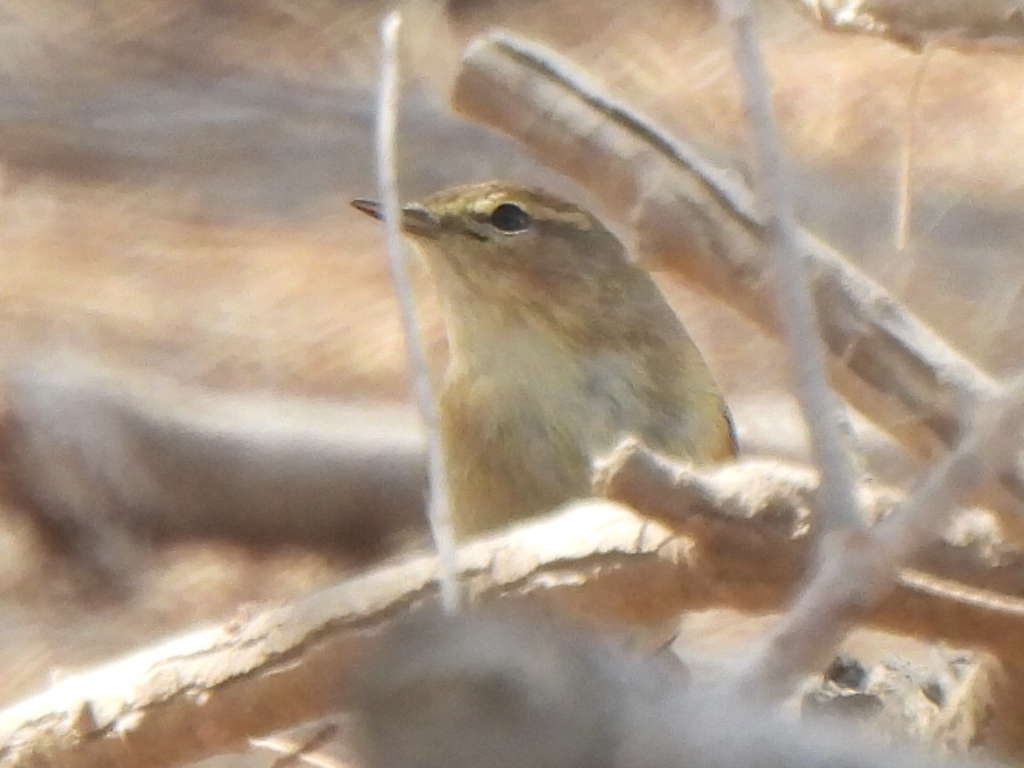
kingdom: Animalia
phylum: Chordata
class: Aves
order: Passeriformes
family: Phylloscopidae
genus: Phylloscopus
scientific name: Phylloscopus collybita
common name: Common chiffchaff
